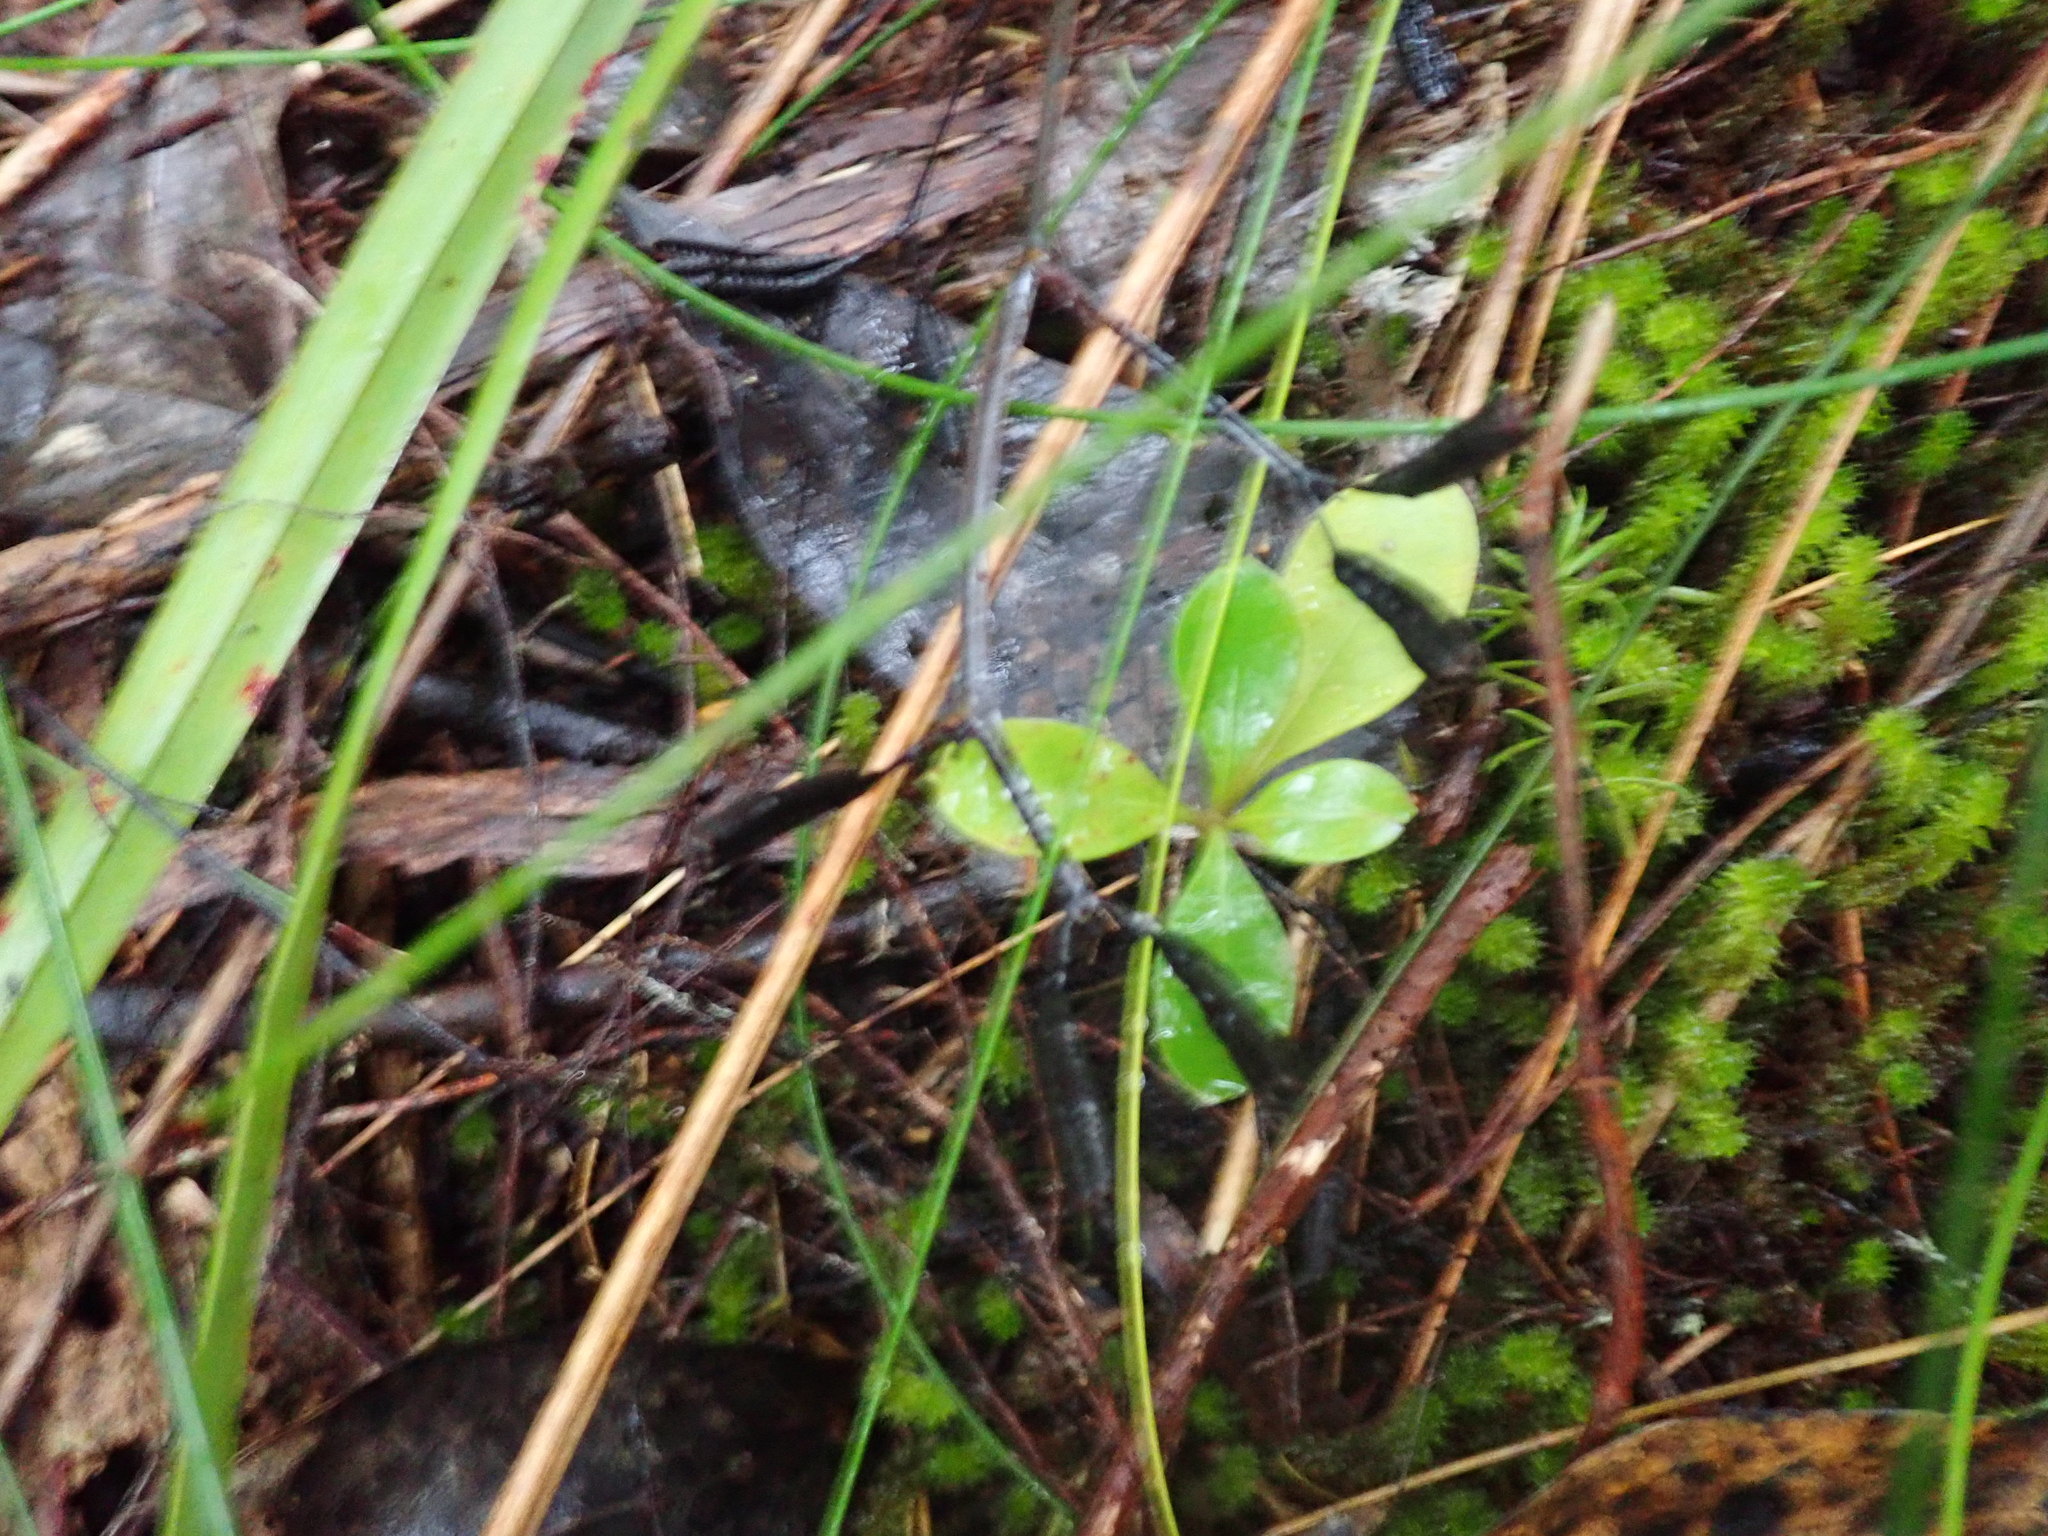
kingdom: Plantae
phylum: Tracheophyta
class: Magnoliopsida
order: Gentianales
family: Rubiaceae
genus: Coprosma
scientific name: Coprosma lucida
